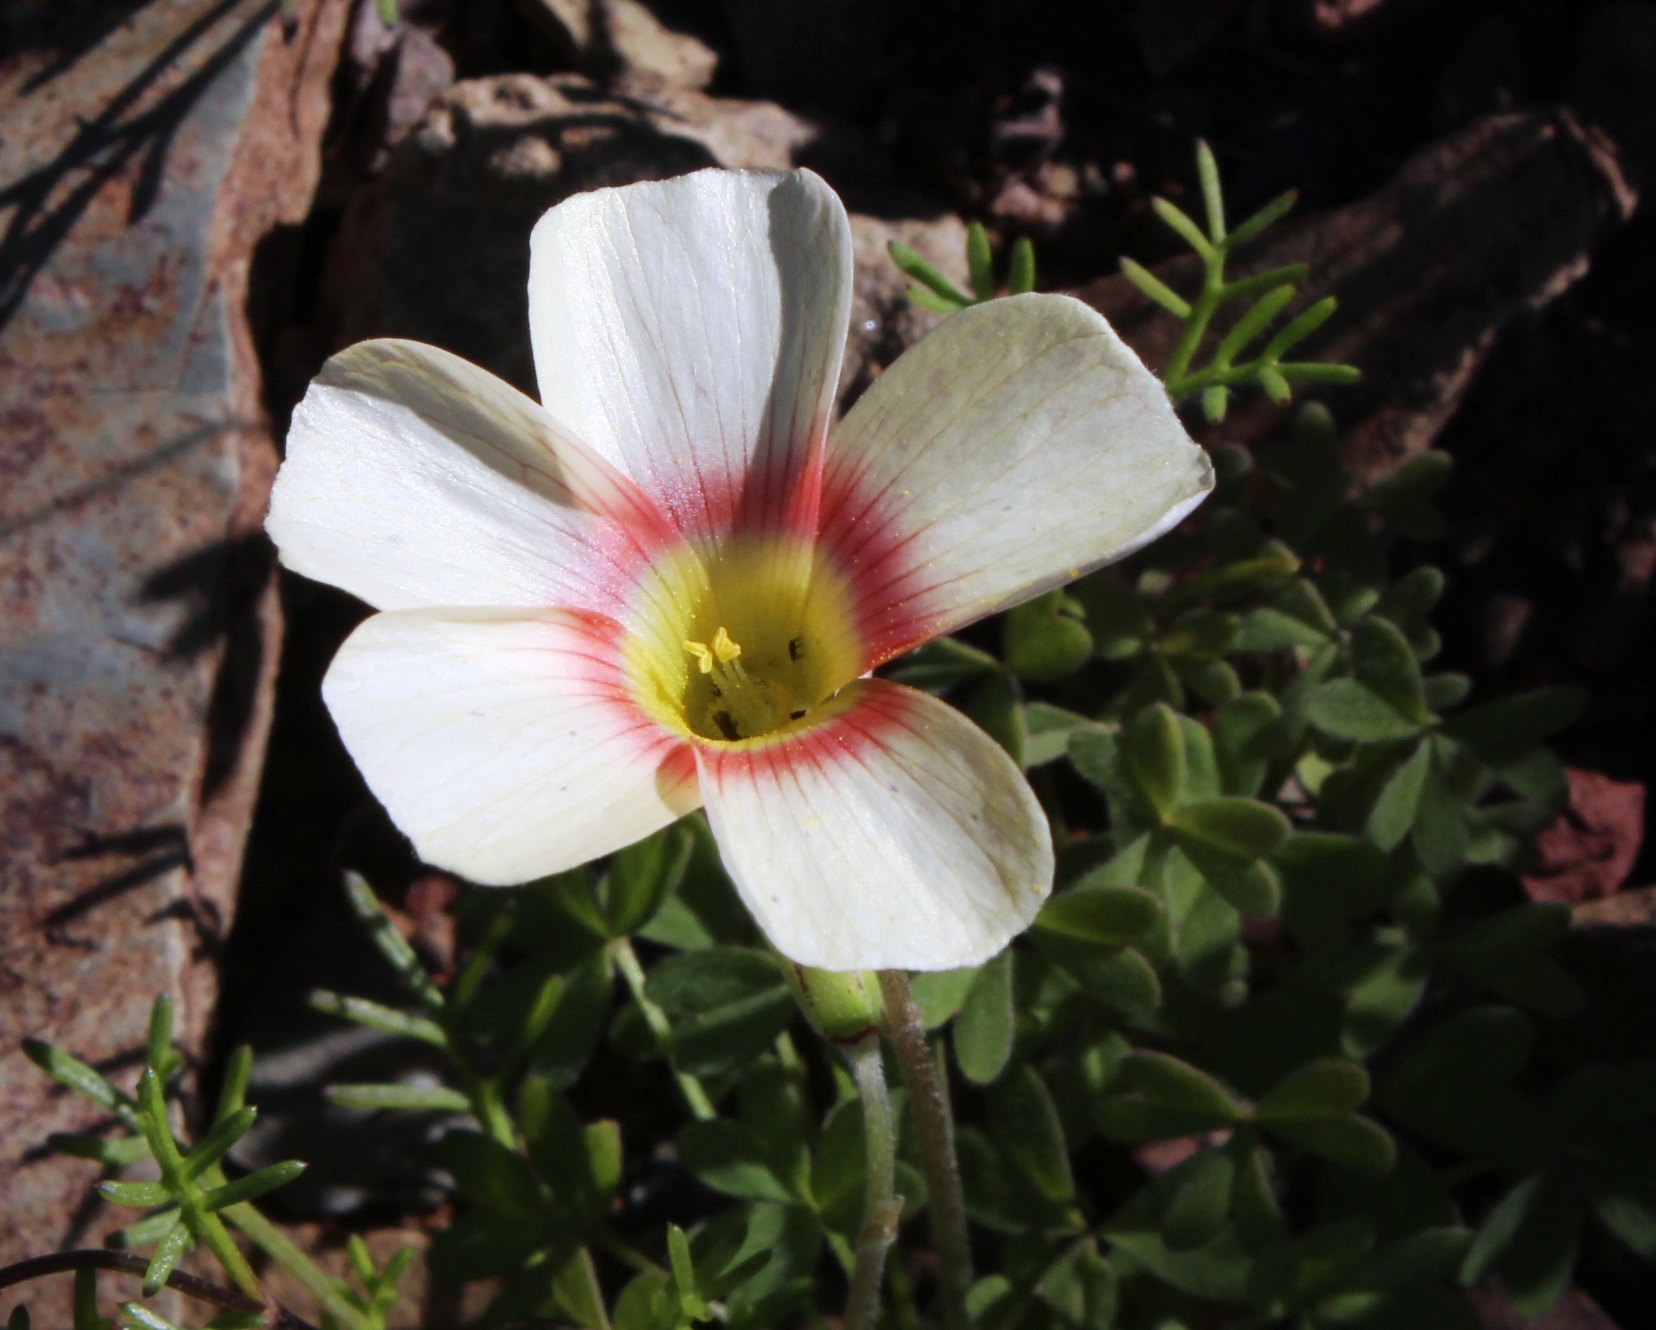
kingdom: Plantae
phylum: Tracheophyta
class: Magnoliopsida
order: Oxalidales
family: Oxalidaceae
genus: Oxalis
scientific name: Oxalis obtusa
